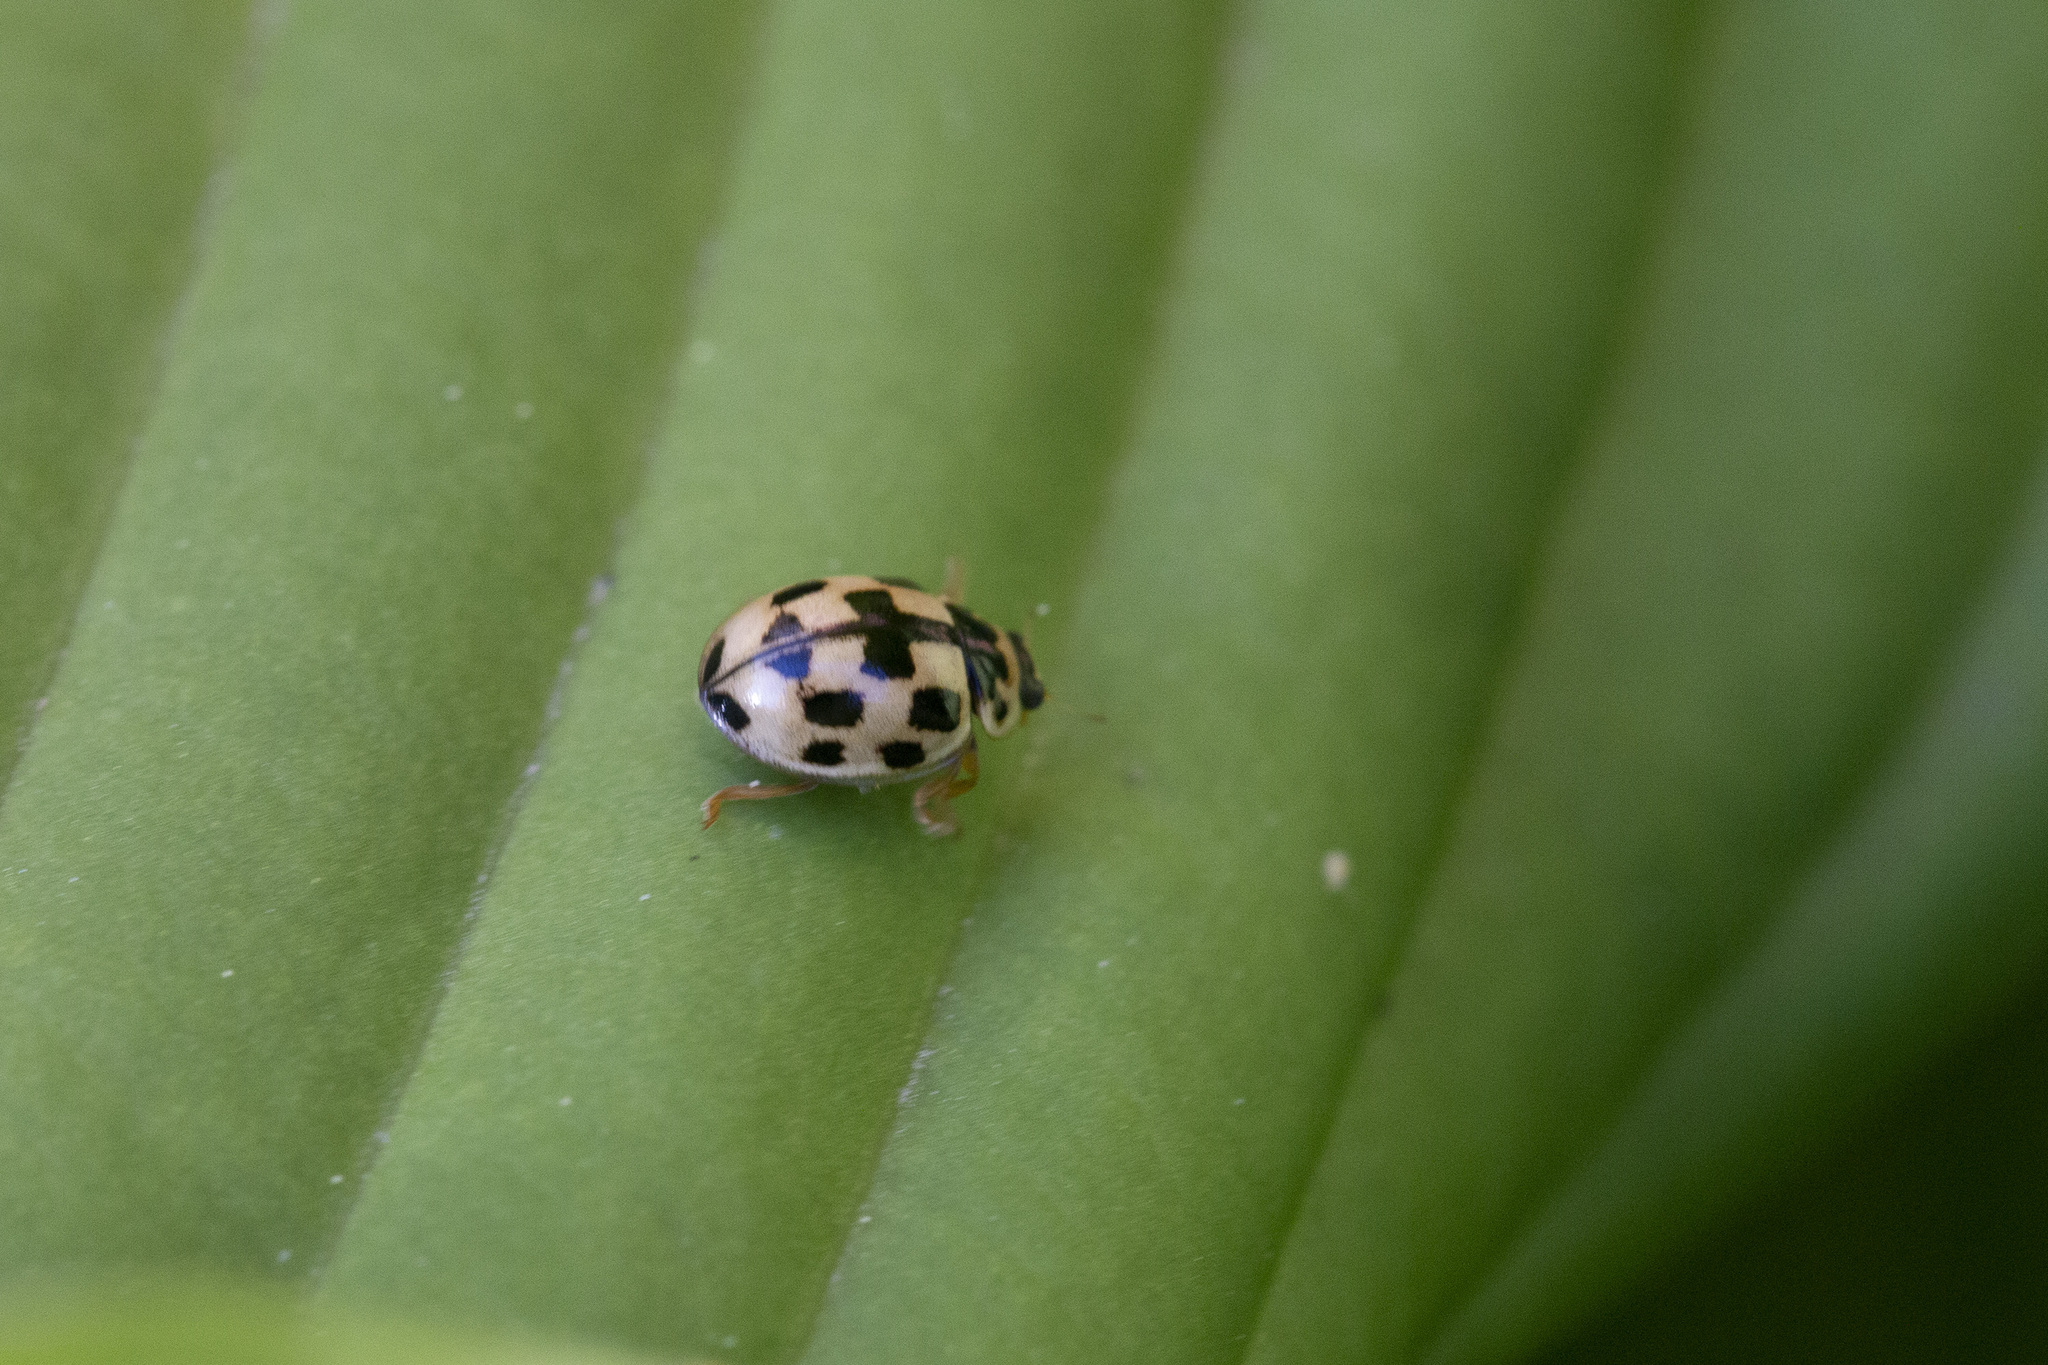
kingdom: Animalia
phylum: Arthropoda
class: Insecta
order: Coleoptera
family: Coccinellidae
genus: Propylaea
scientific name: Propylaea quatuordecimpunctata
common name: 14-spotted ladybird beetle
